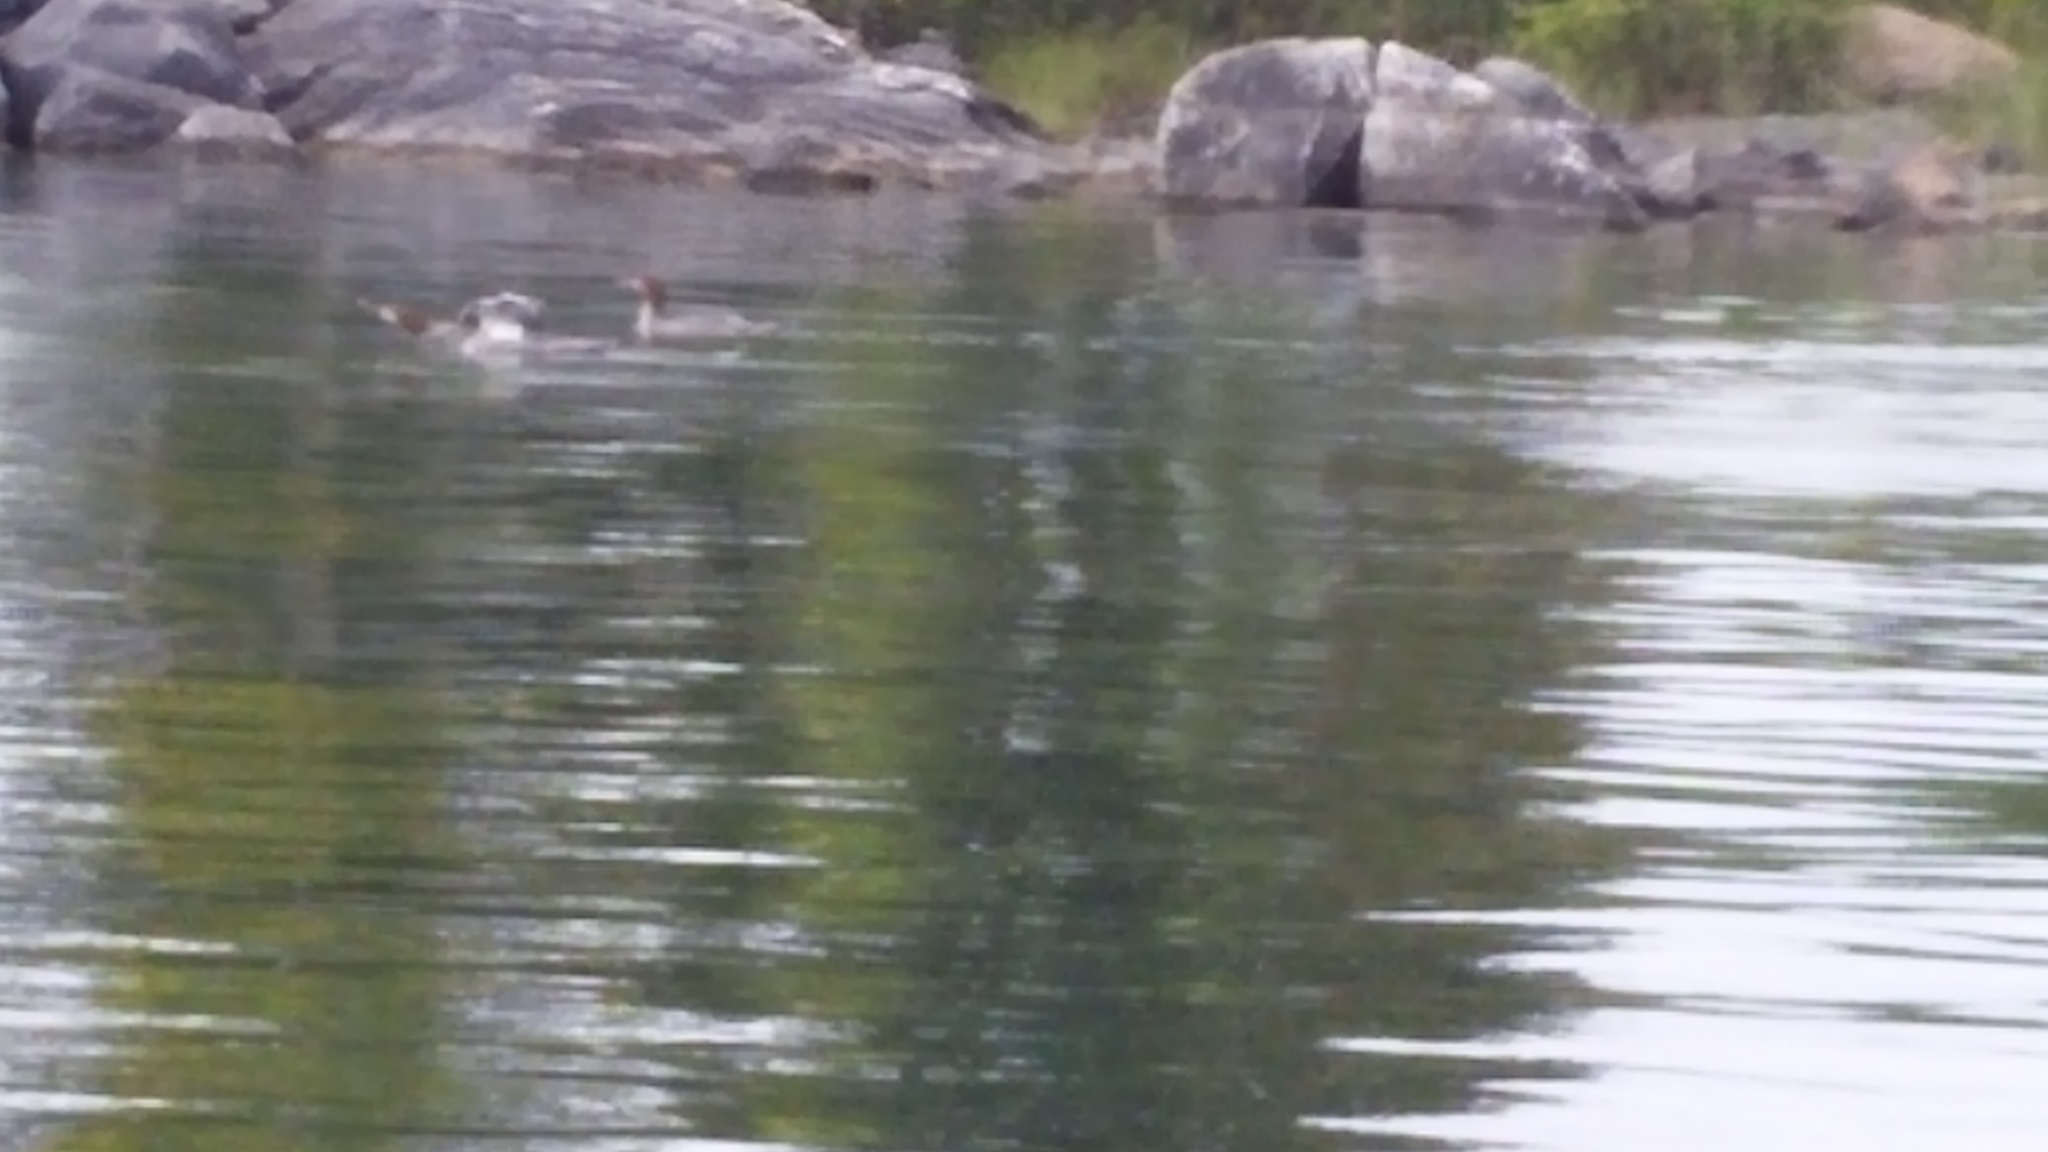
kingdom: Animalia
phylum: Chordata
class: Aves
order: Anseriformes
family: Anatidae
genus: Mergus
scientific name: Mergus merganser
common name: Common merganser
